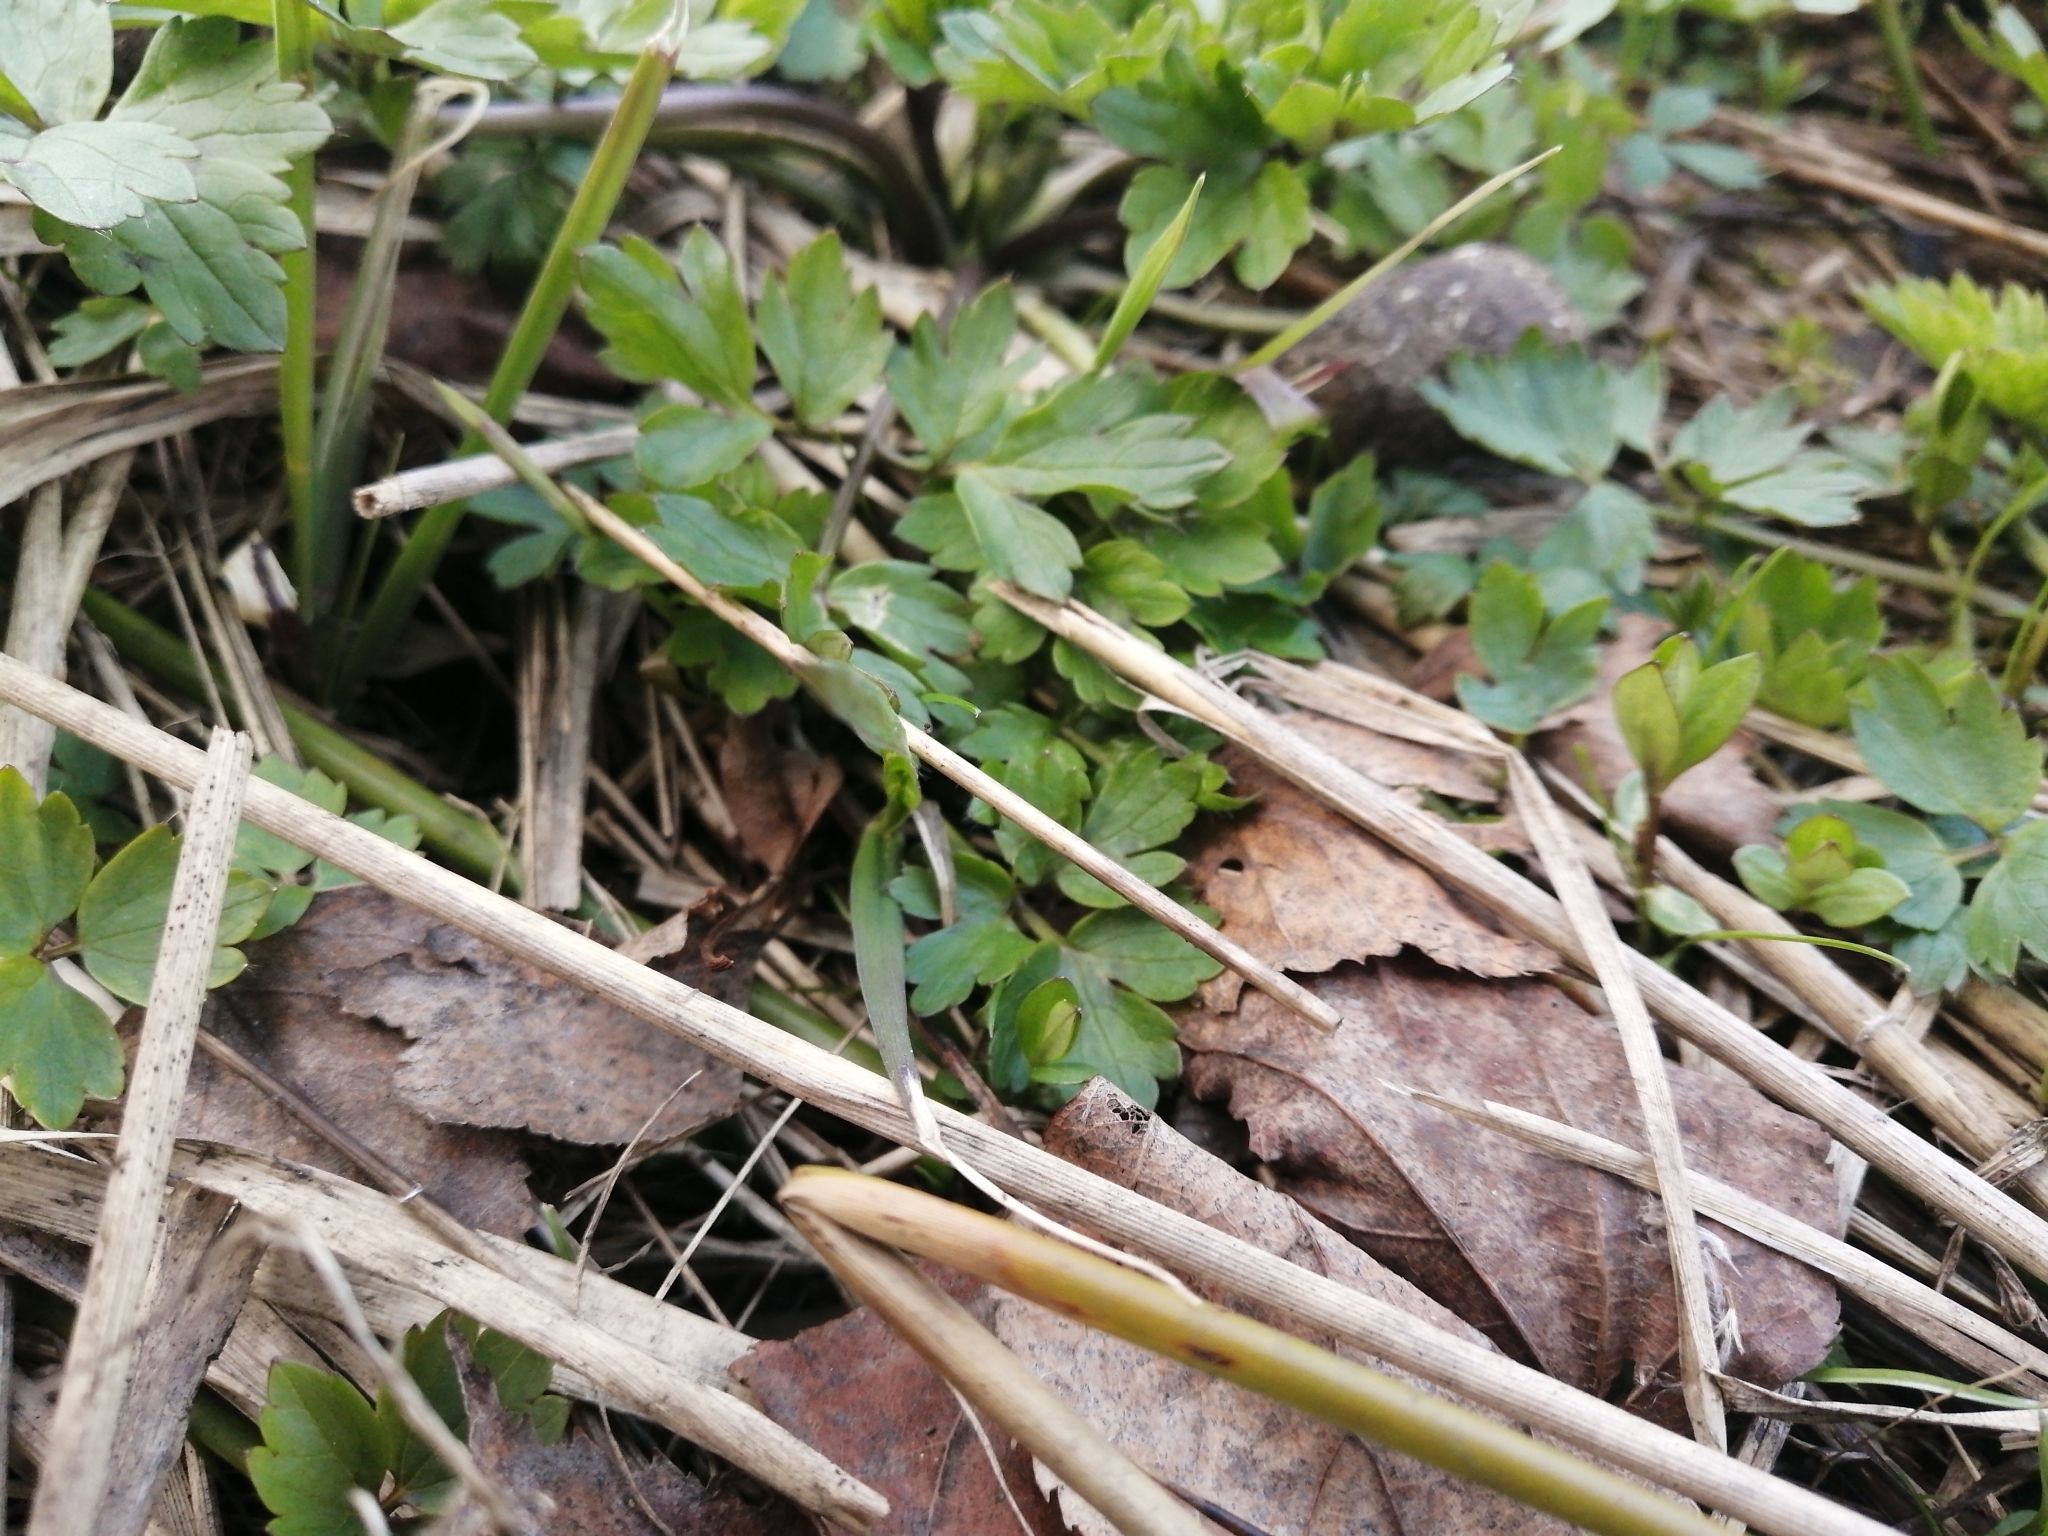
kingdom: Plantae
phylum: Tracheophyta
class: Magnoliopsida
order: Ranunculales
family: Ranunculaceae
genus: Ranunculus
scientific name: Ranunculus repens
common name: Creeping buttercup
